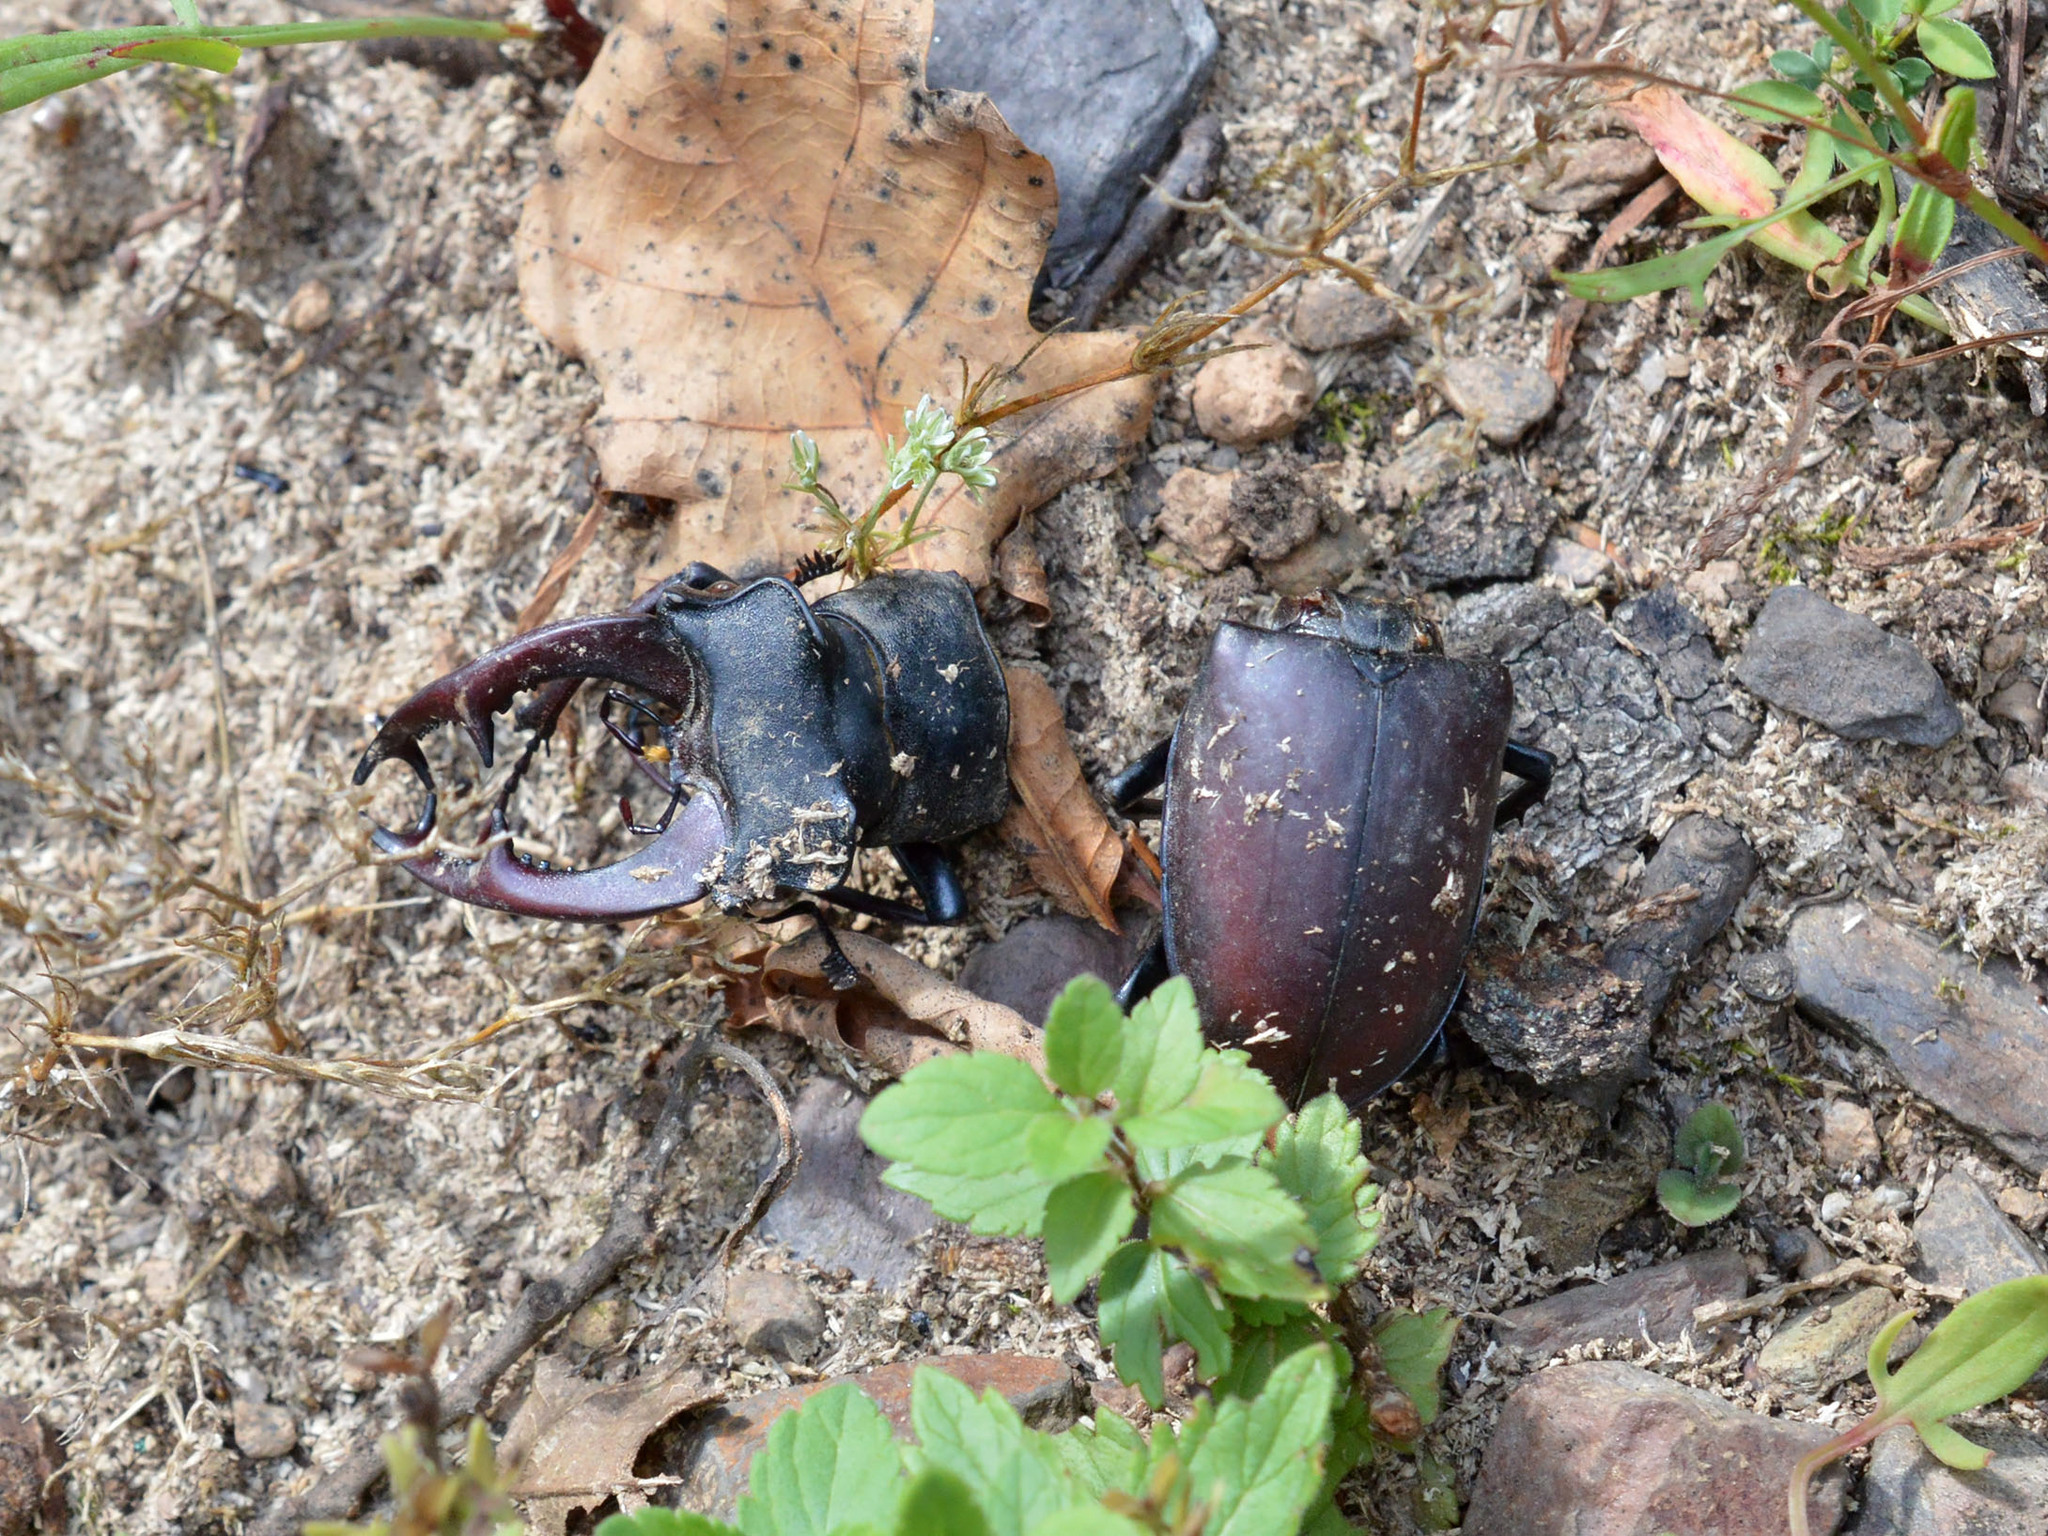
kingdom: Animalia
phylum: Arthropoda
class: Insecta
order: Coleoptera
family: Lucanidae
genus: Lucanus
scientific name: Lucanus cervus
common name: Stag beetle
